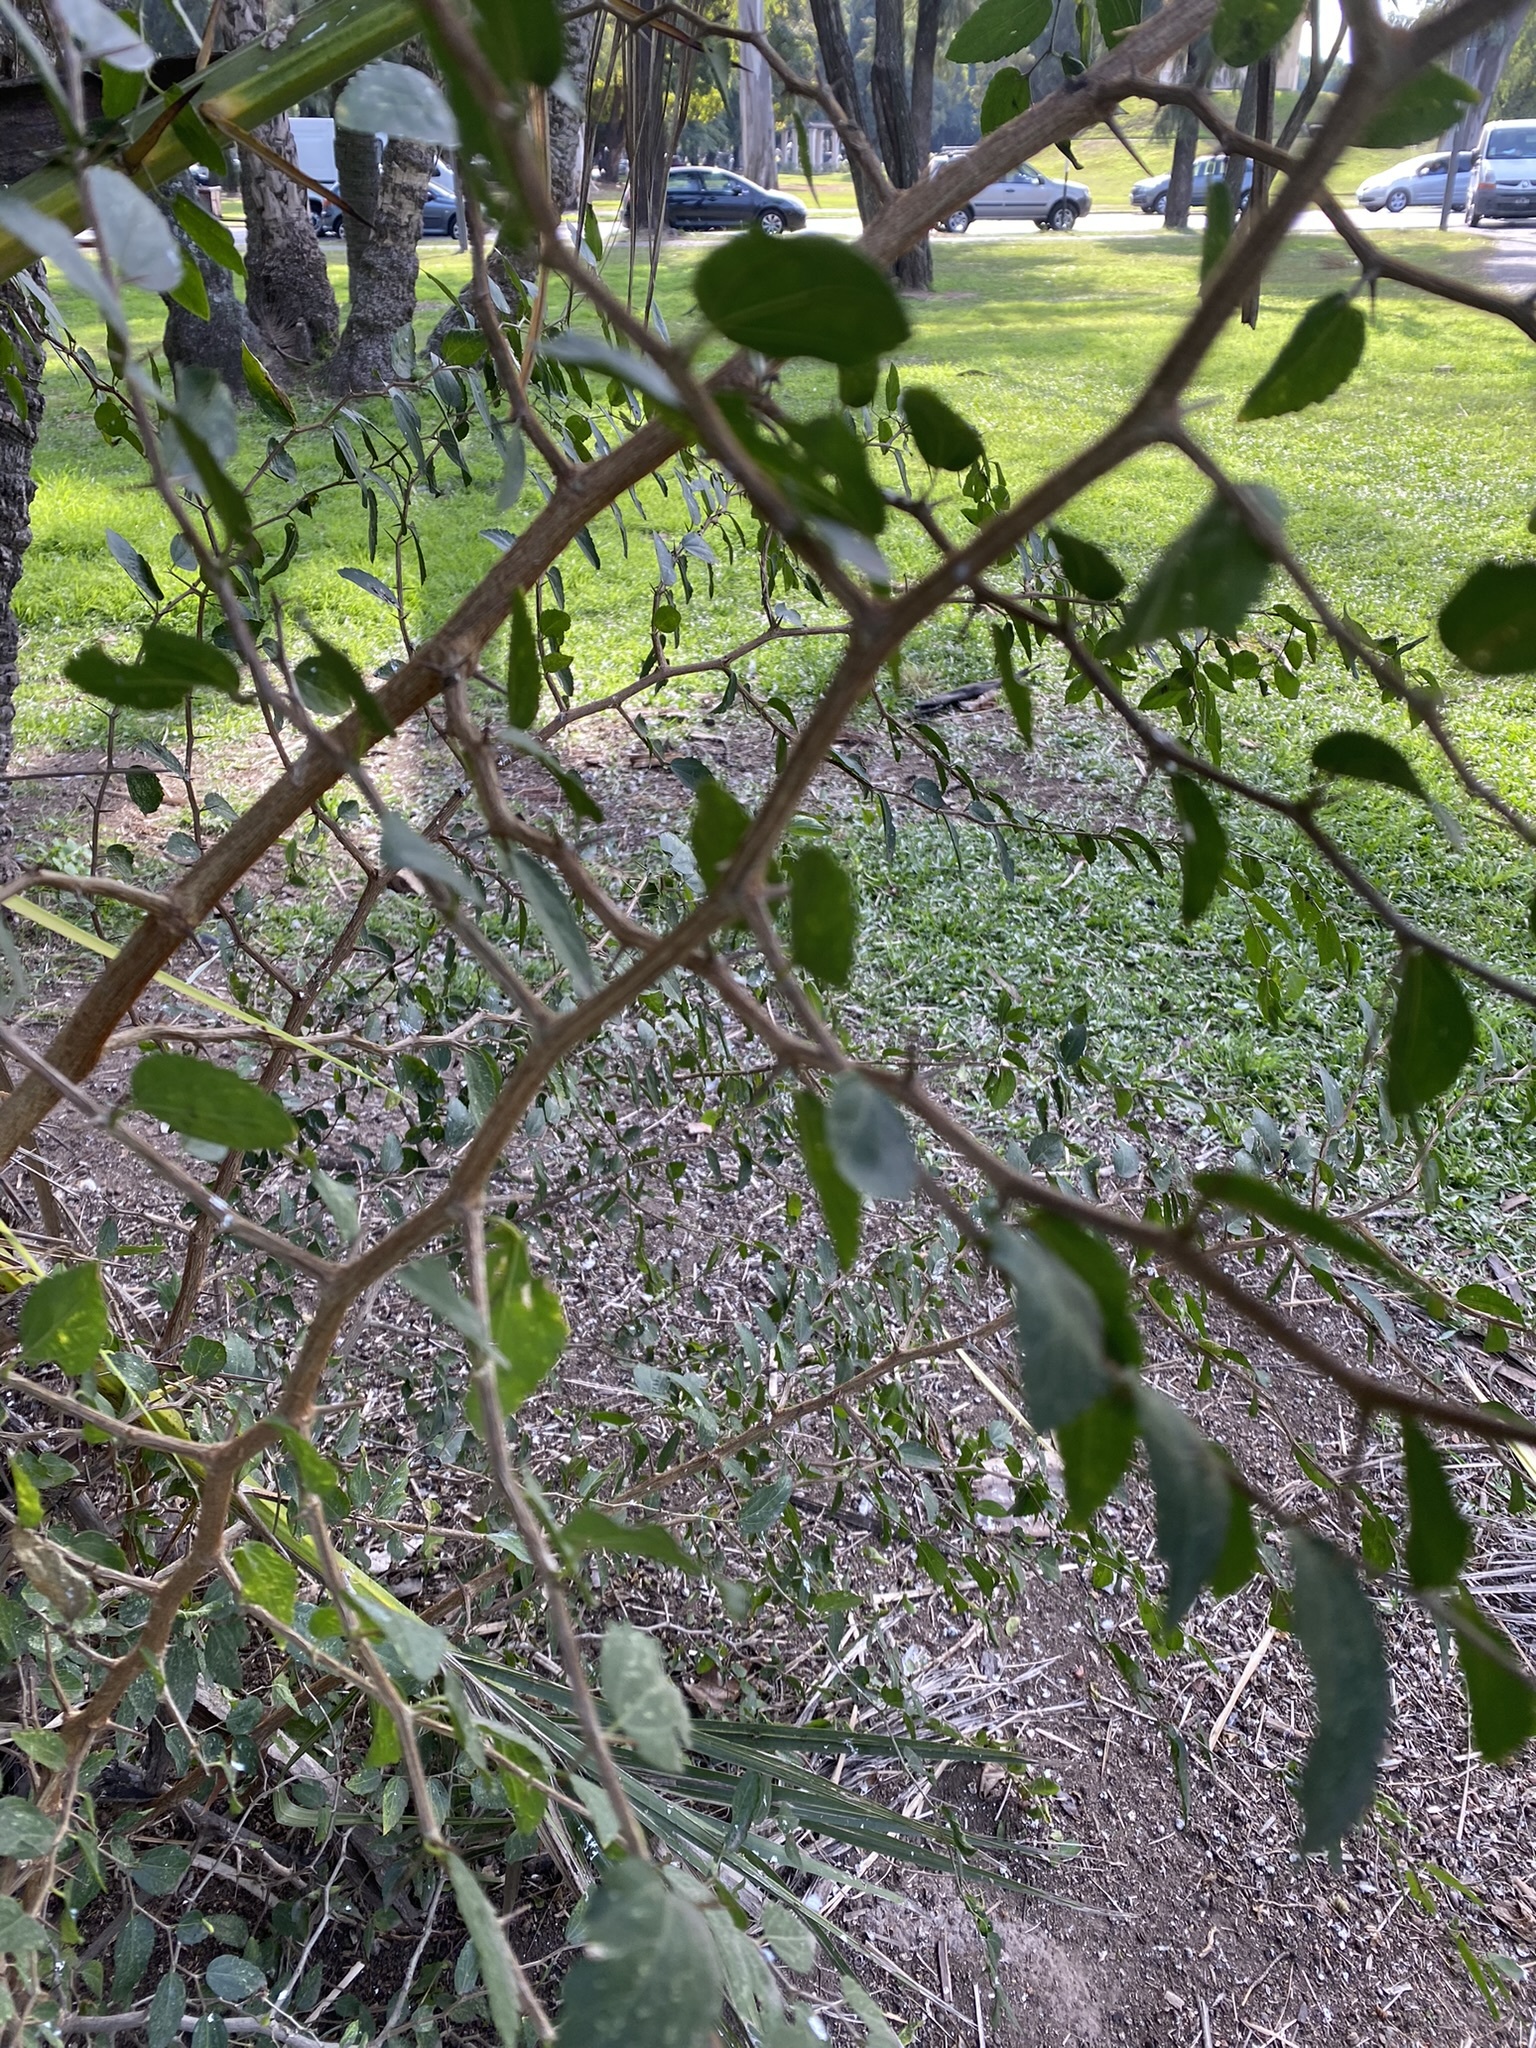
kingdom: Plantae
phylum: Tracheophyta
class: Magnoliopsida
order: Rosales
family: Cannabaceae
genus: Celtis
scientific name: Celtis tala
